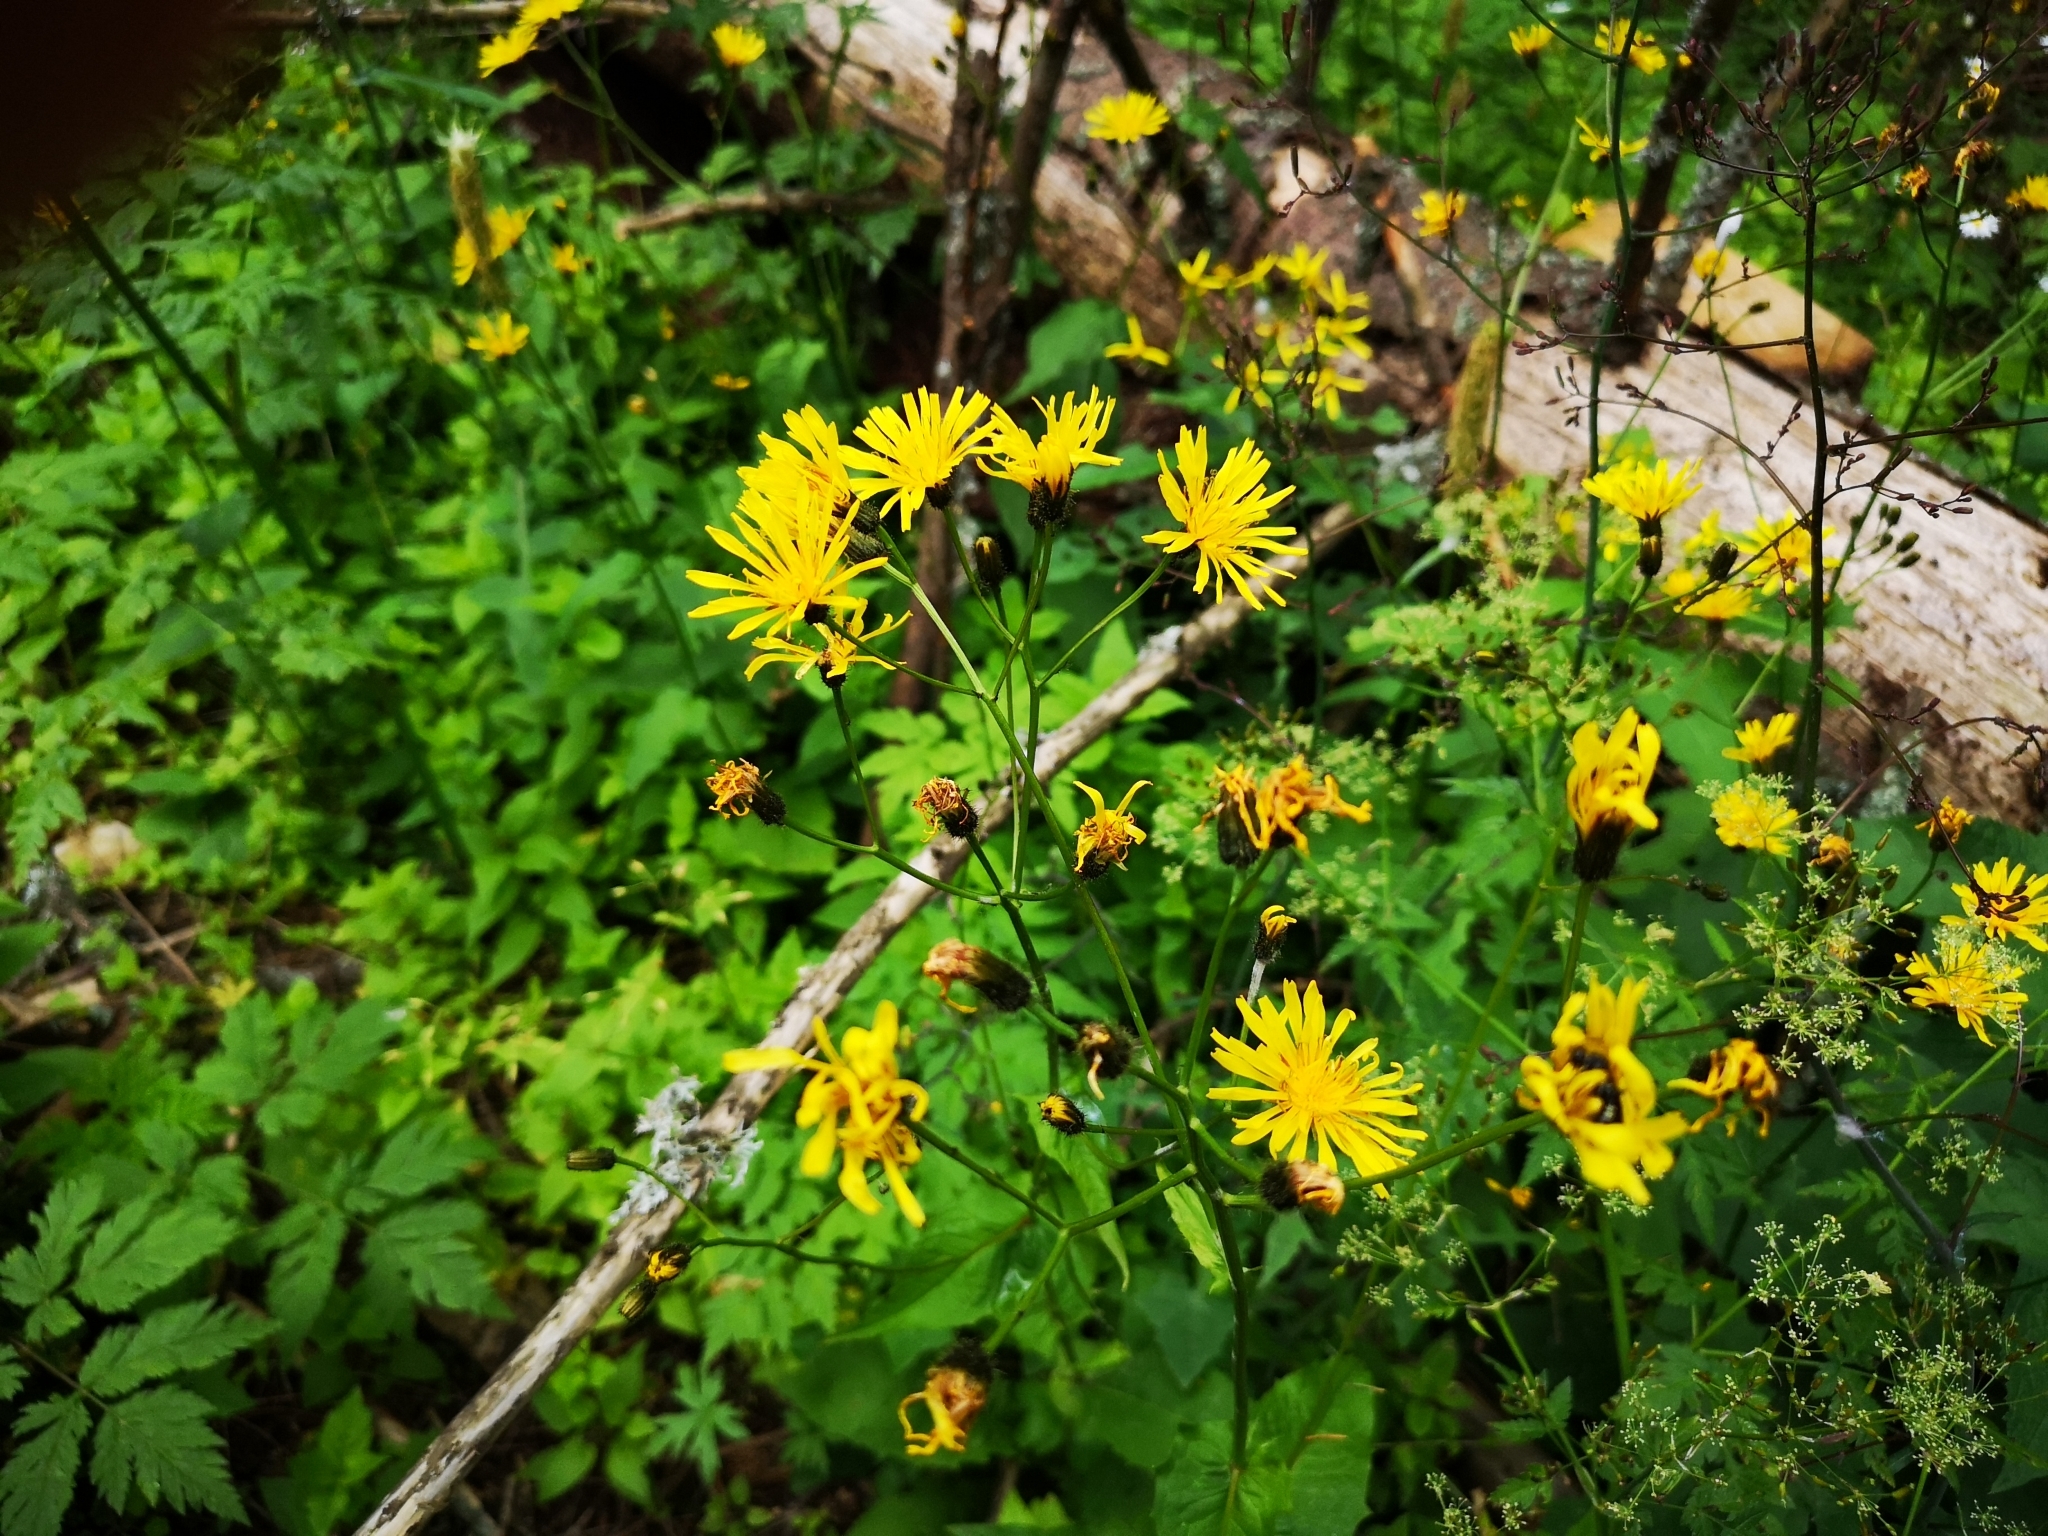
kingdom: Plantae
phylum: Tracheophyta
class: Magnoliopsida
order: Asterales
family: Asteraceae
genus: Crepis
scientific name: Crepis paludosa
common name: Marsh hawk's-beard
